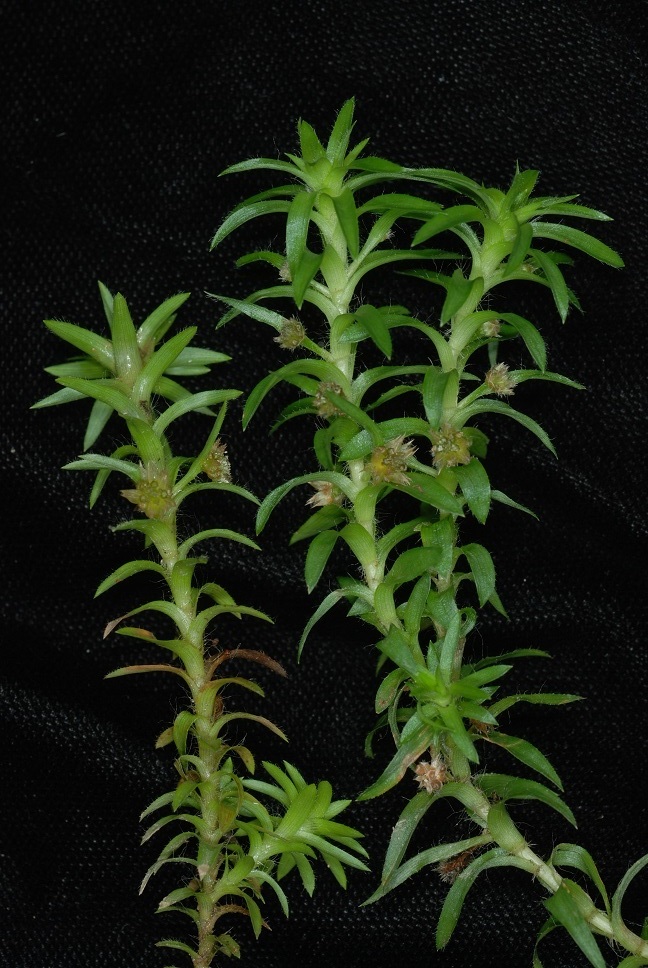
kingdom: Plantae
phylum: Tracheophyta
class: Liliopsida
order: Poales
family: Eriocaulaceae
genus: Paepalanthus
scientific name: Paepalanthus fluviatilis
